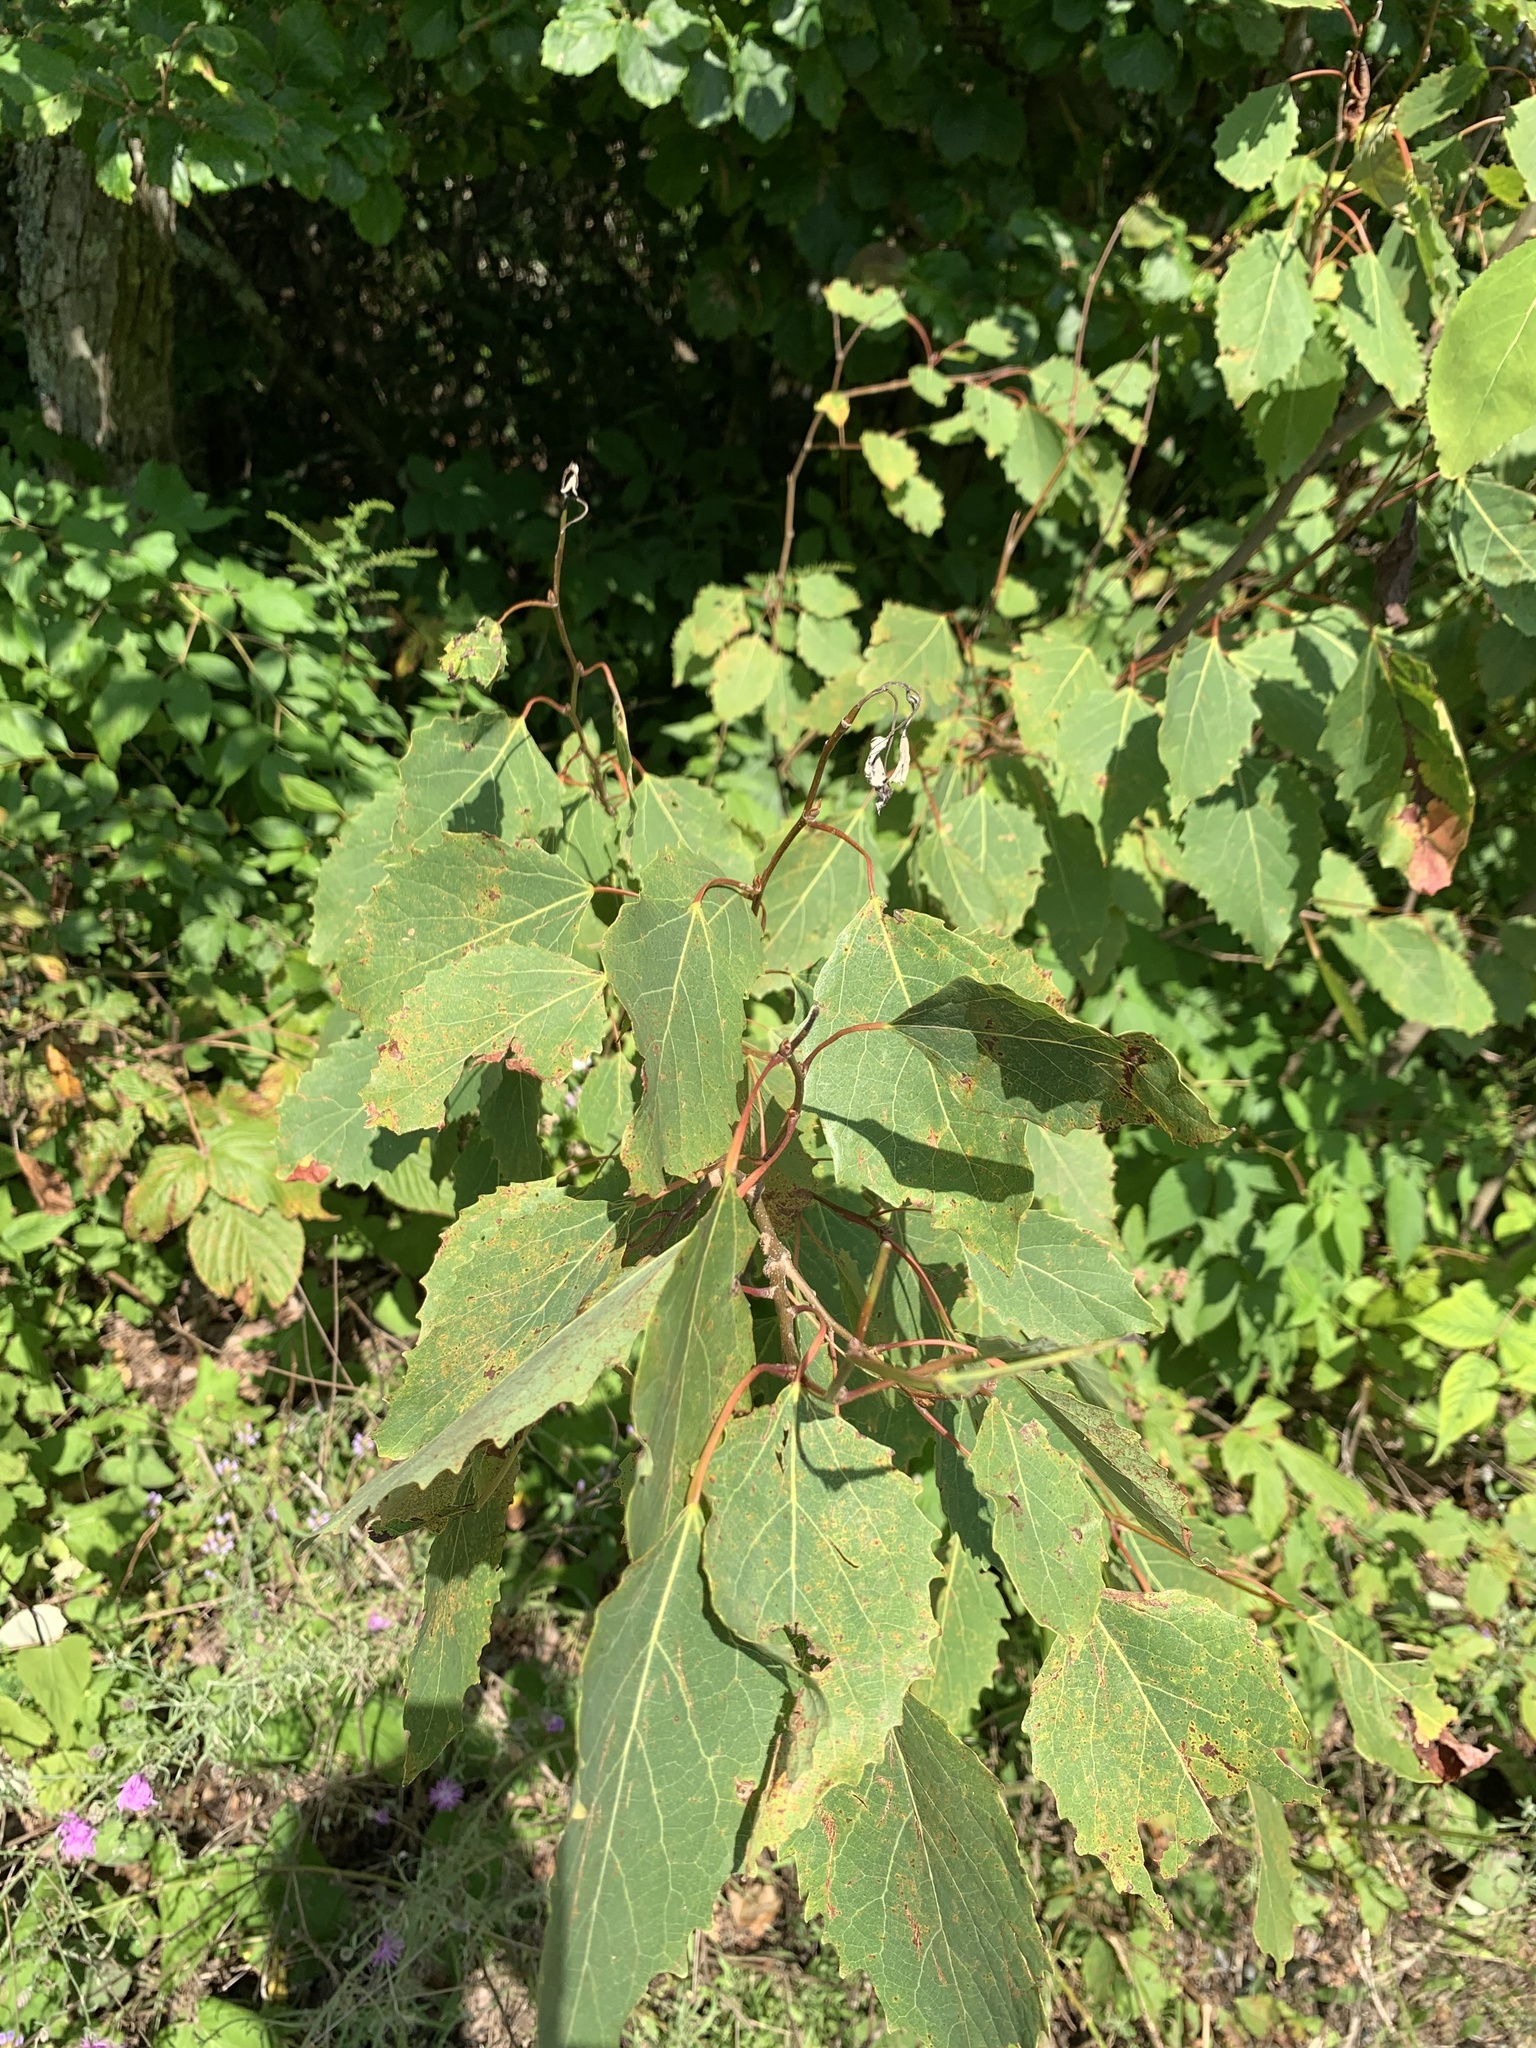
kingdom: Plantae
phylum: Tracheophyta
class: Magnoliopsida
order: Malpighiales
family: Salicaceae
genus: Populus
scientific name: Populus grandidentata
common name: Bigtooth aspen
